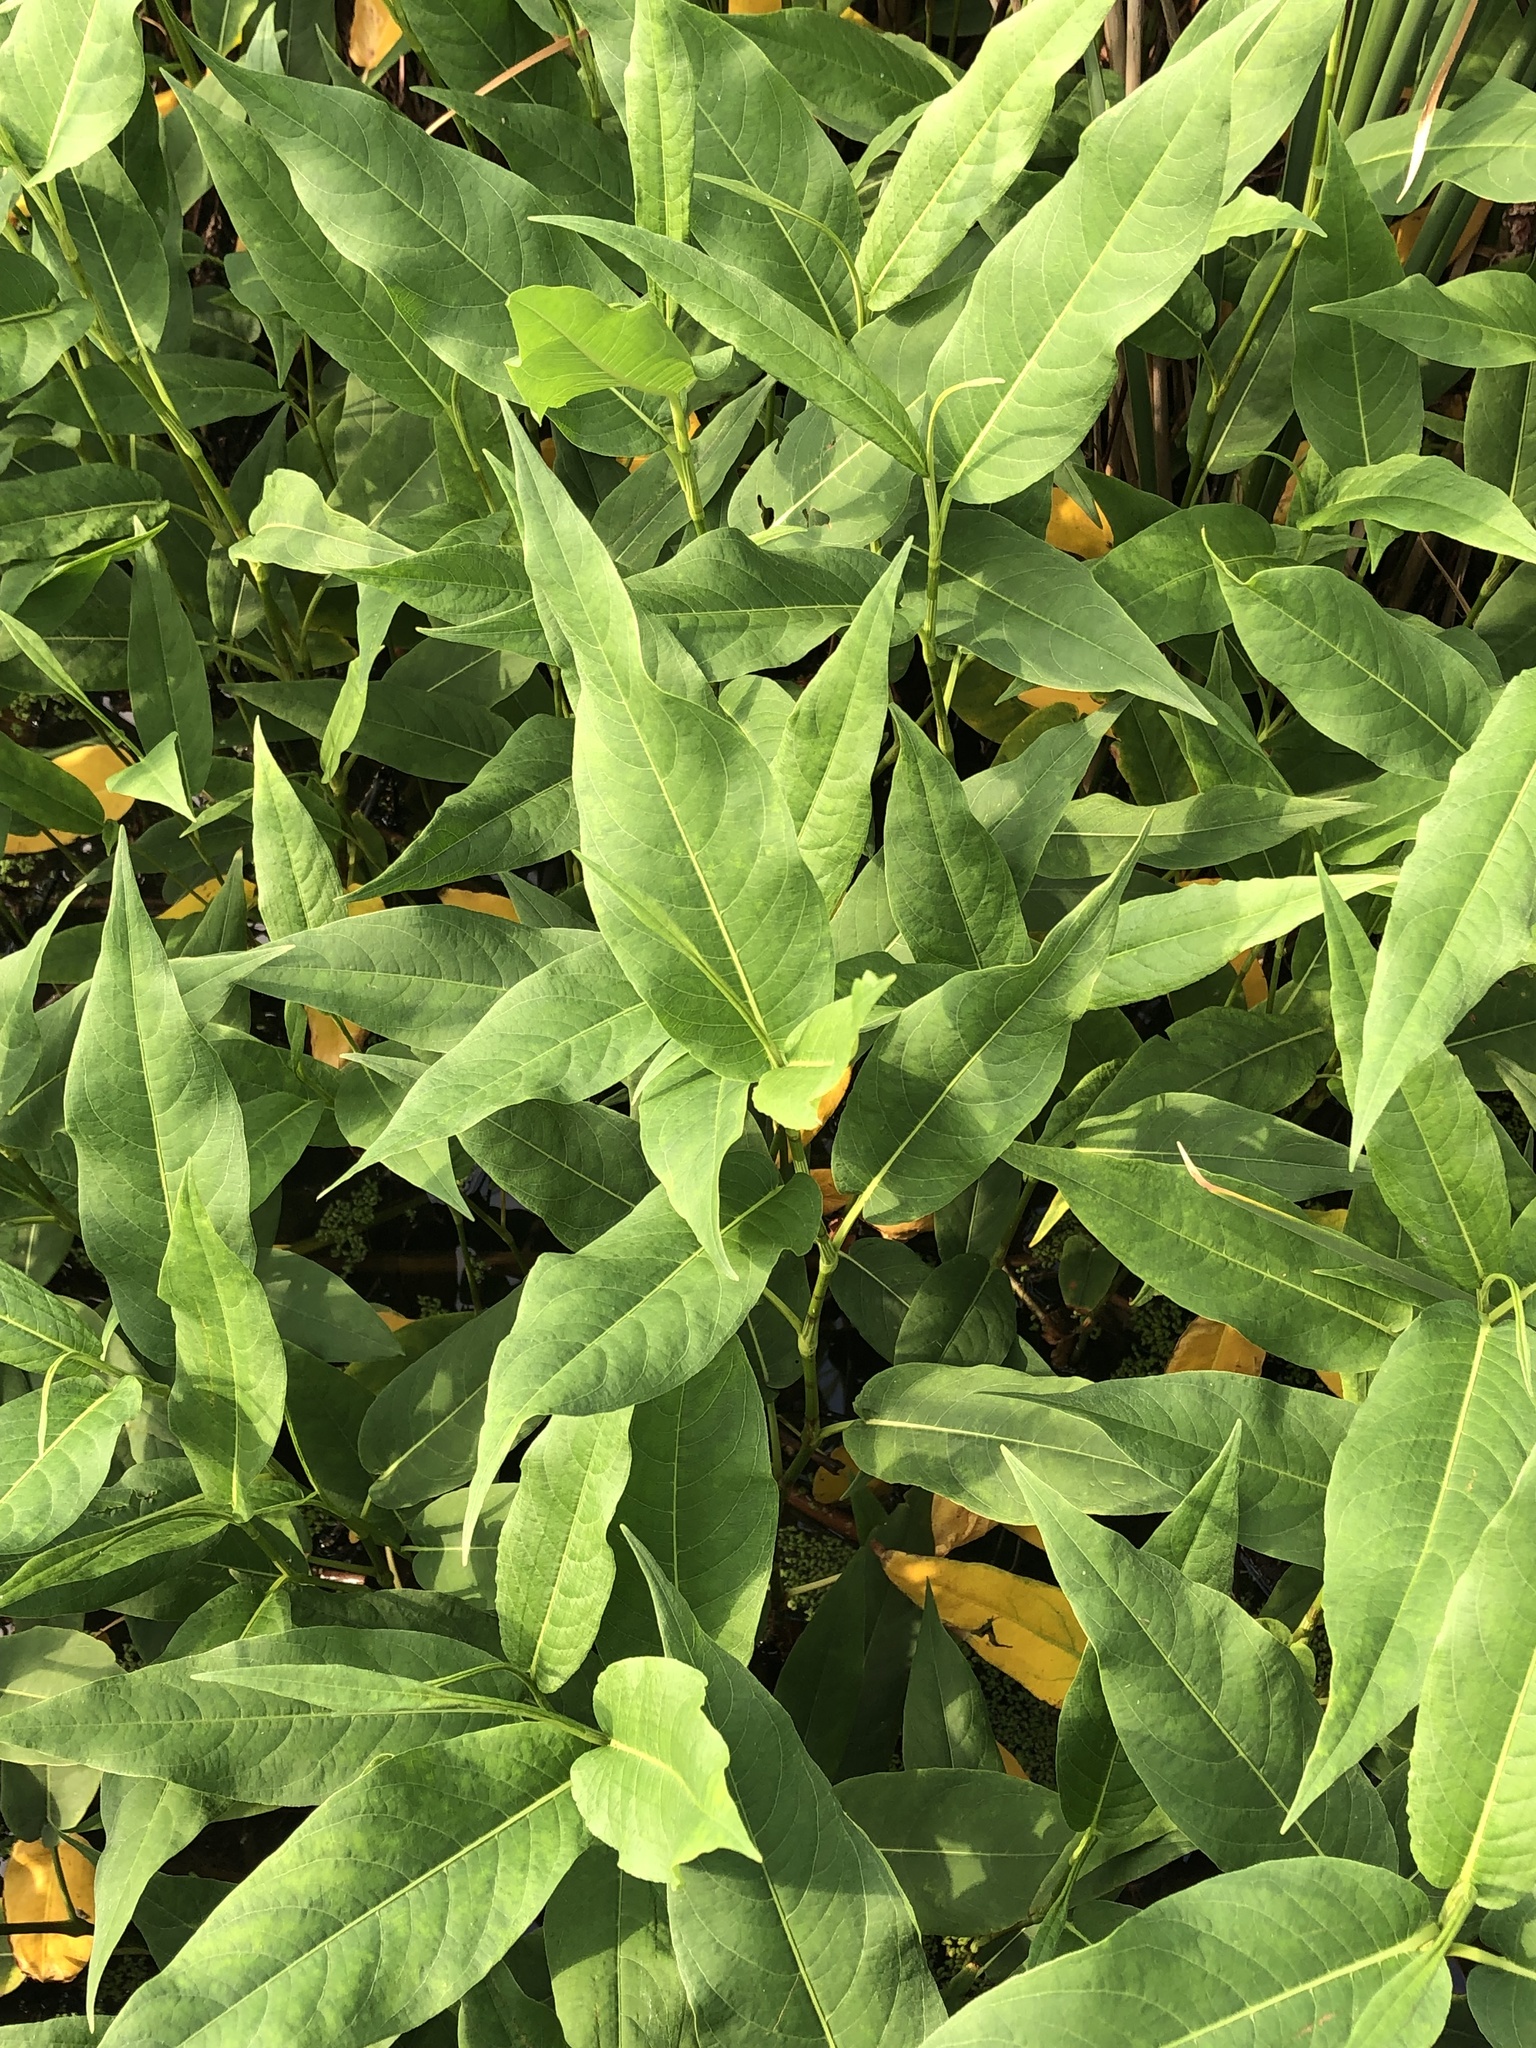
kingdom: Plantae
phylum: Tracheophyta
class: Magnoliopsida
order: Caryophyllales
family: Polygonaceae
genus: Persicaria
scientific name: Persicaria amphibia
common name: Amphibious bistort
